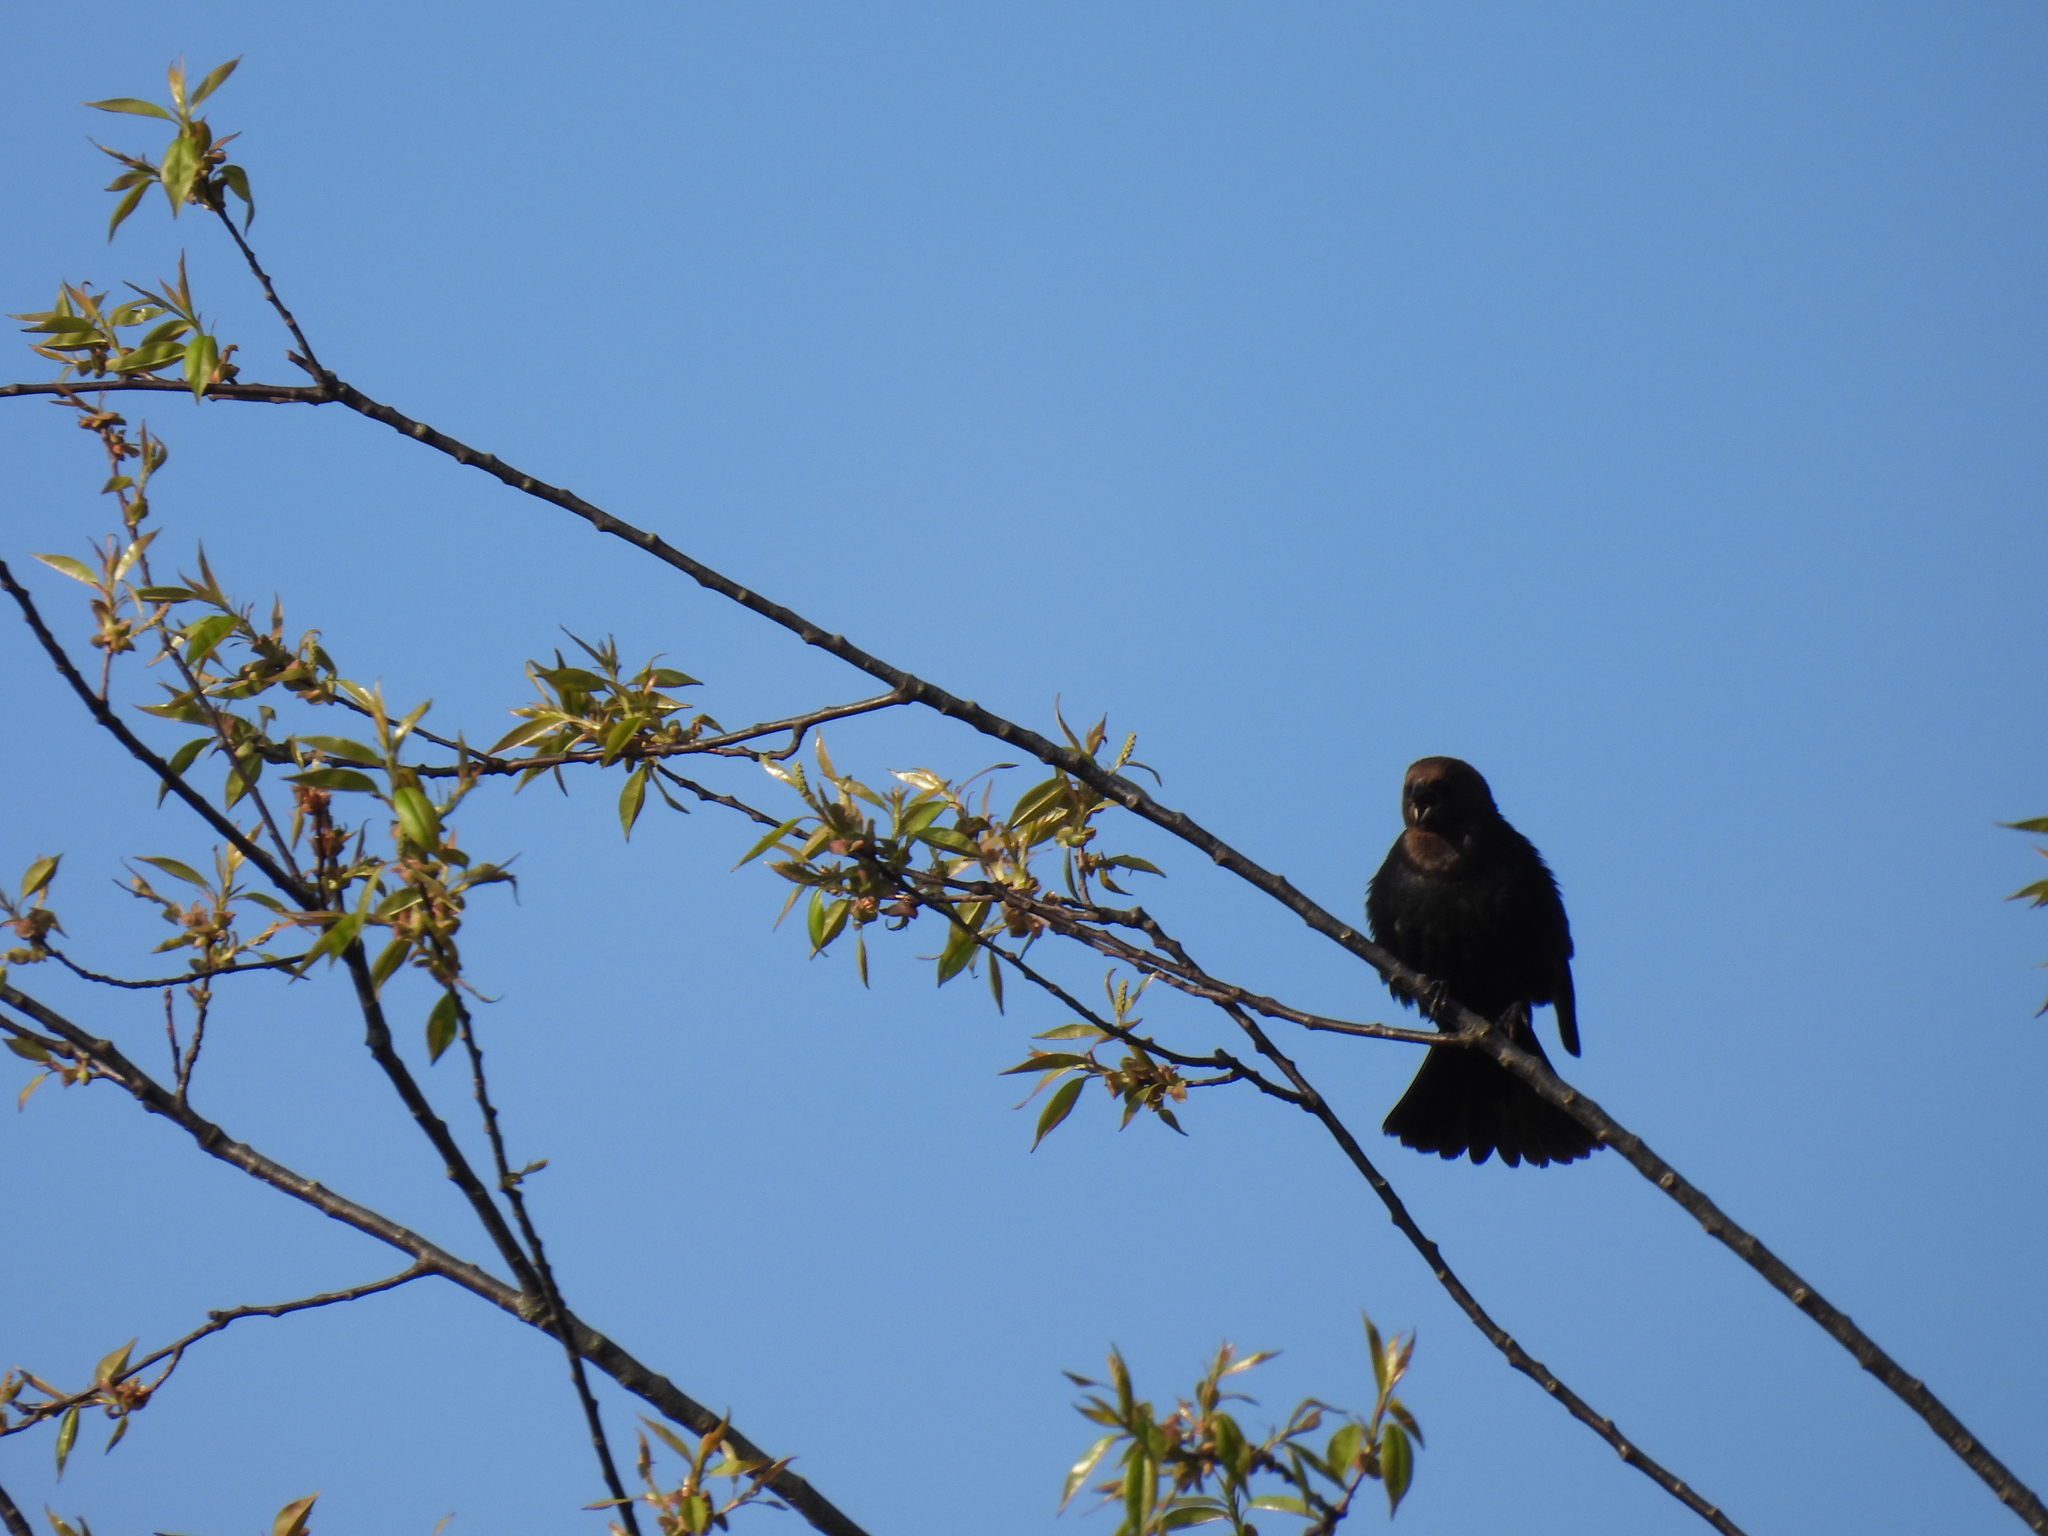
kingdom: Animalia
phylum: Chordata
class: Aves
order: Passeriformes
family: Icteridae
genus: Molothrus
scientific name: Molothrus ater
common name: Brown-headed cowbird
